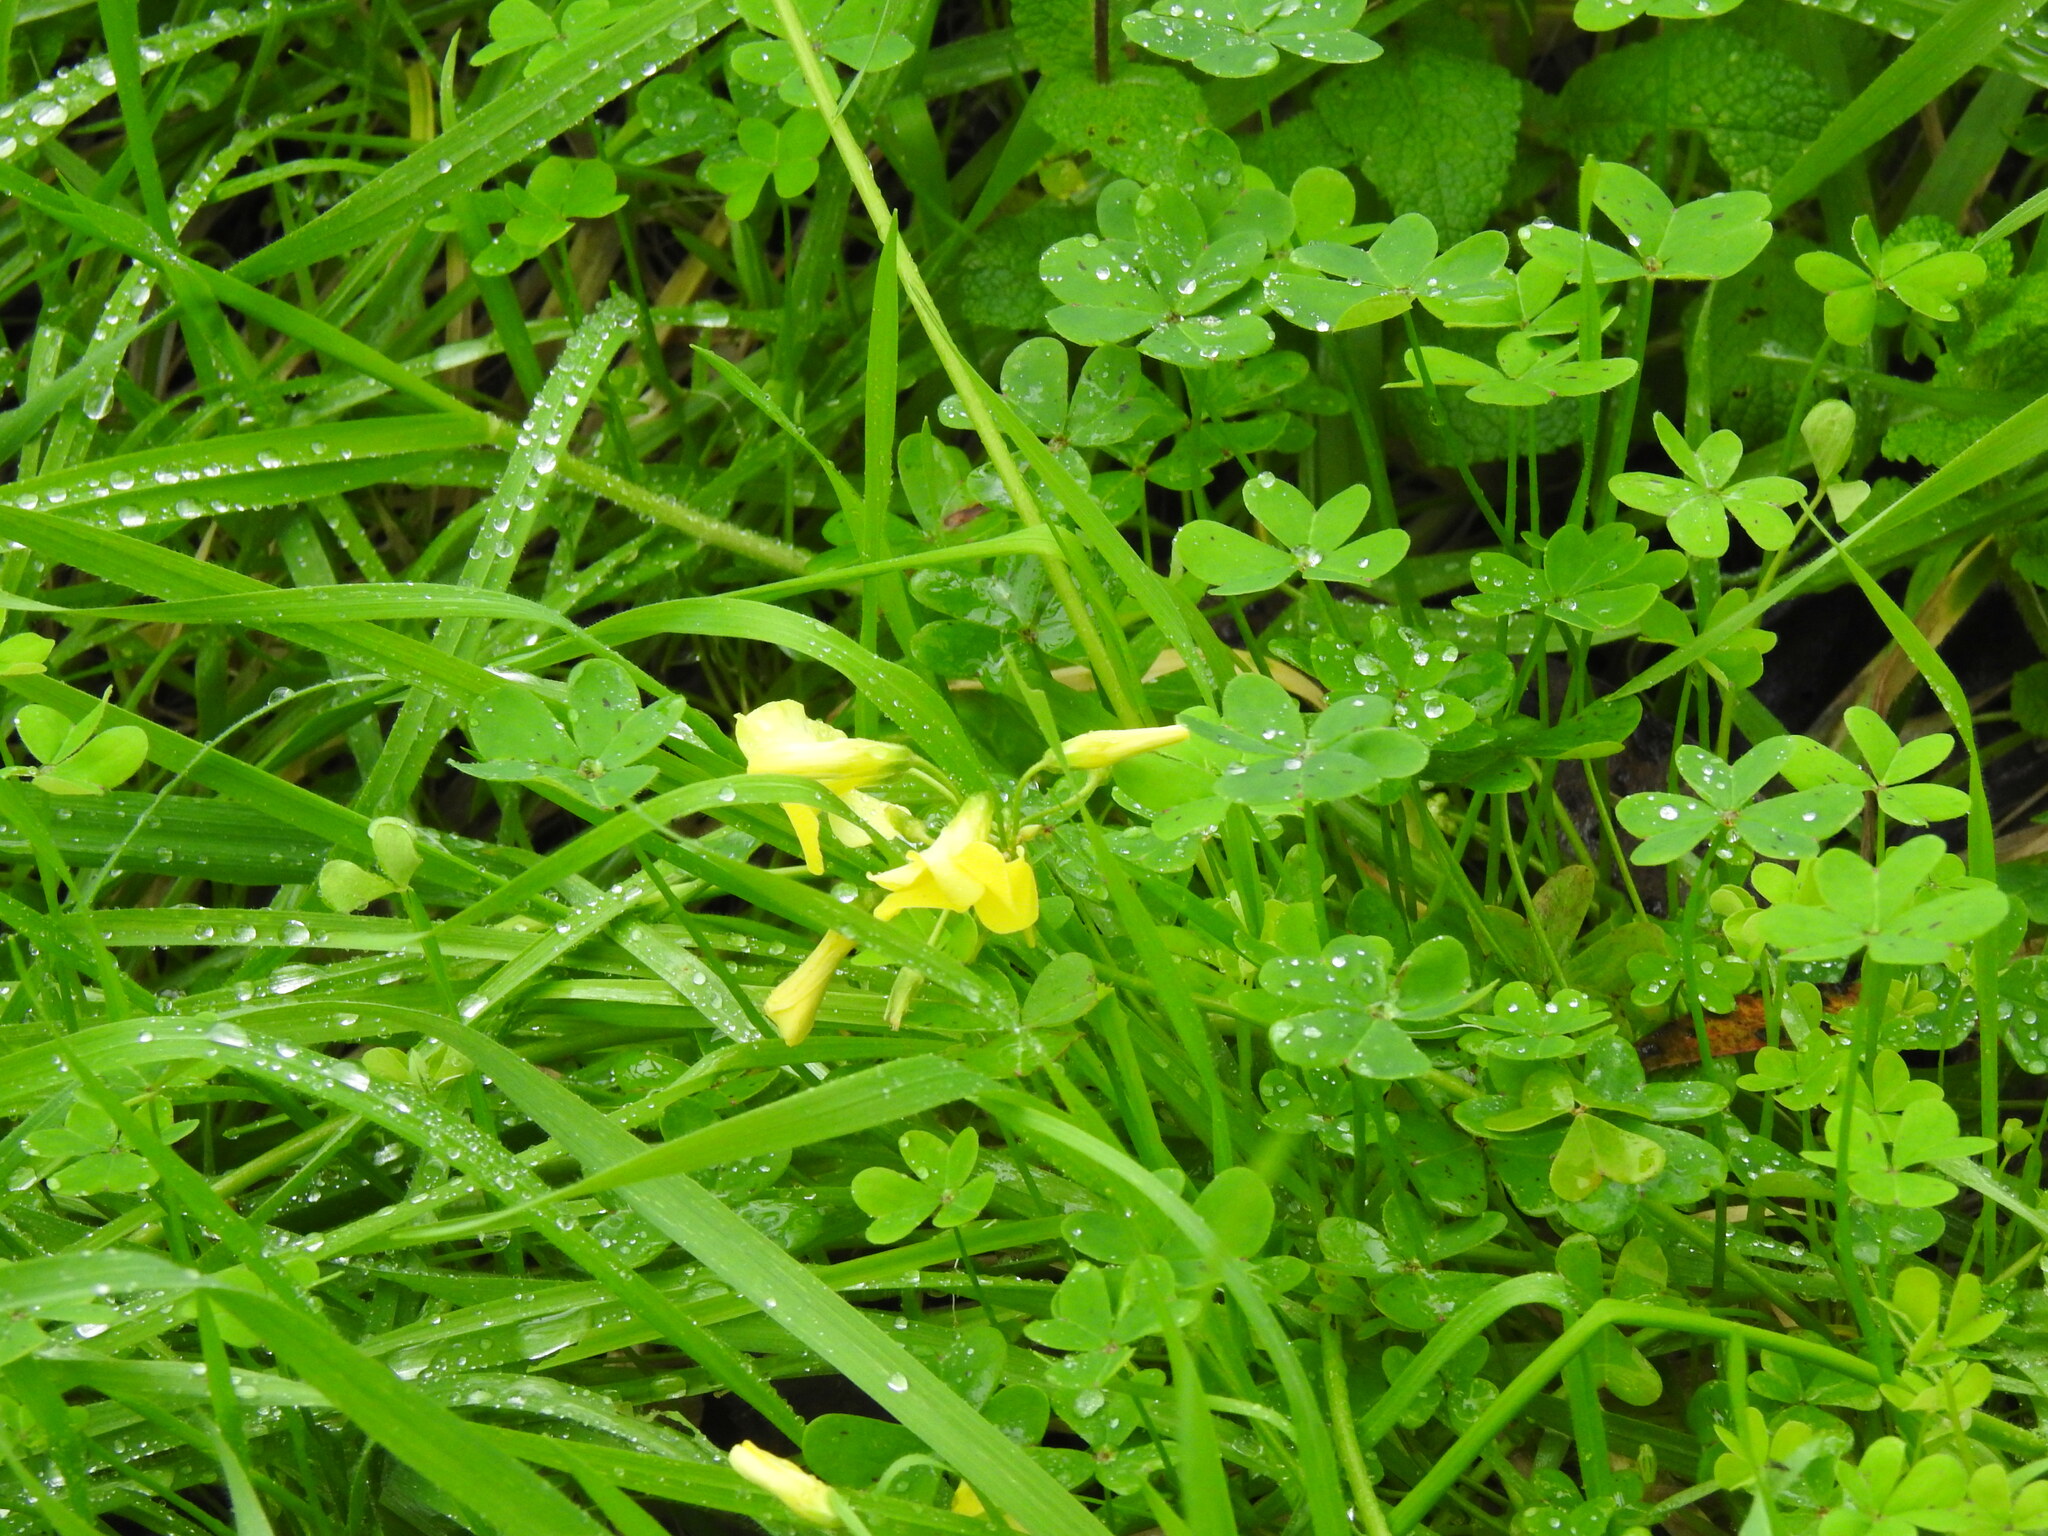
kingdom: Plantae
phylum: Tracheophyta
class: Magnoliopsida
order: Oxalidales
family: Oxalidaceae
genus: Oxalis
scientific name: Oxalis pes-caprae
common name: Bermuda-buttercup
